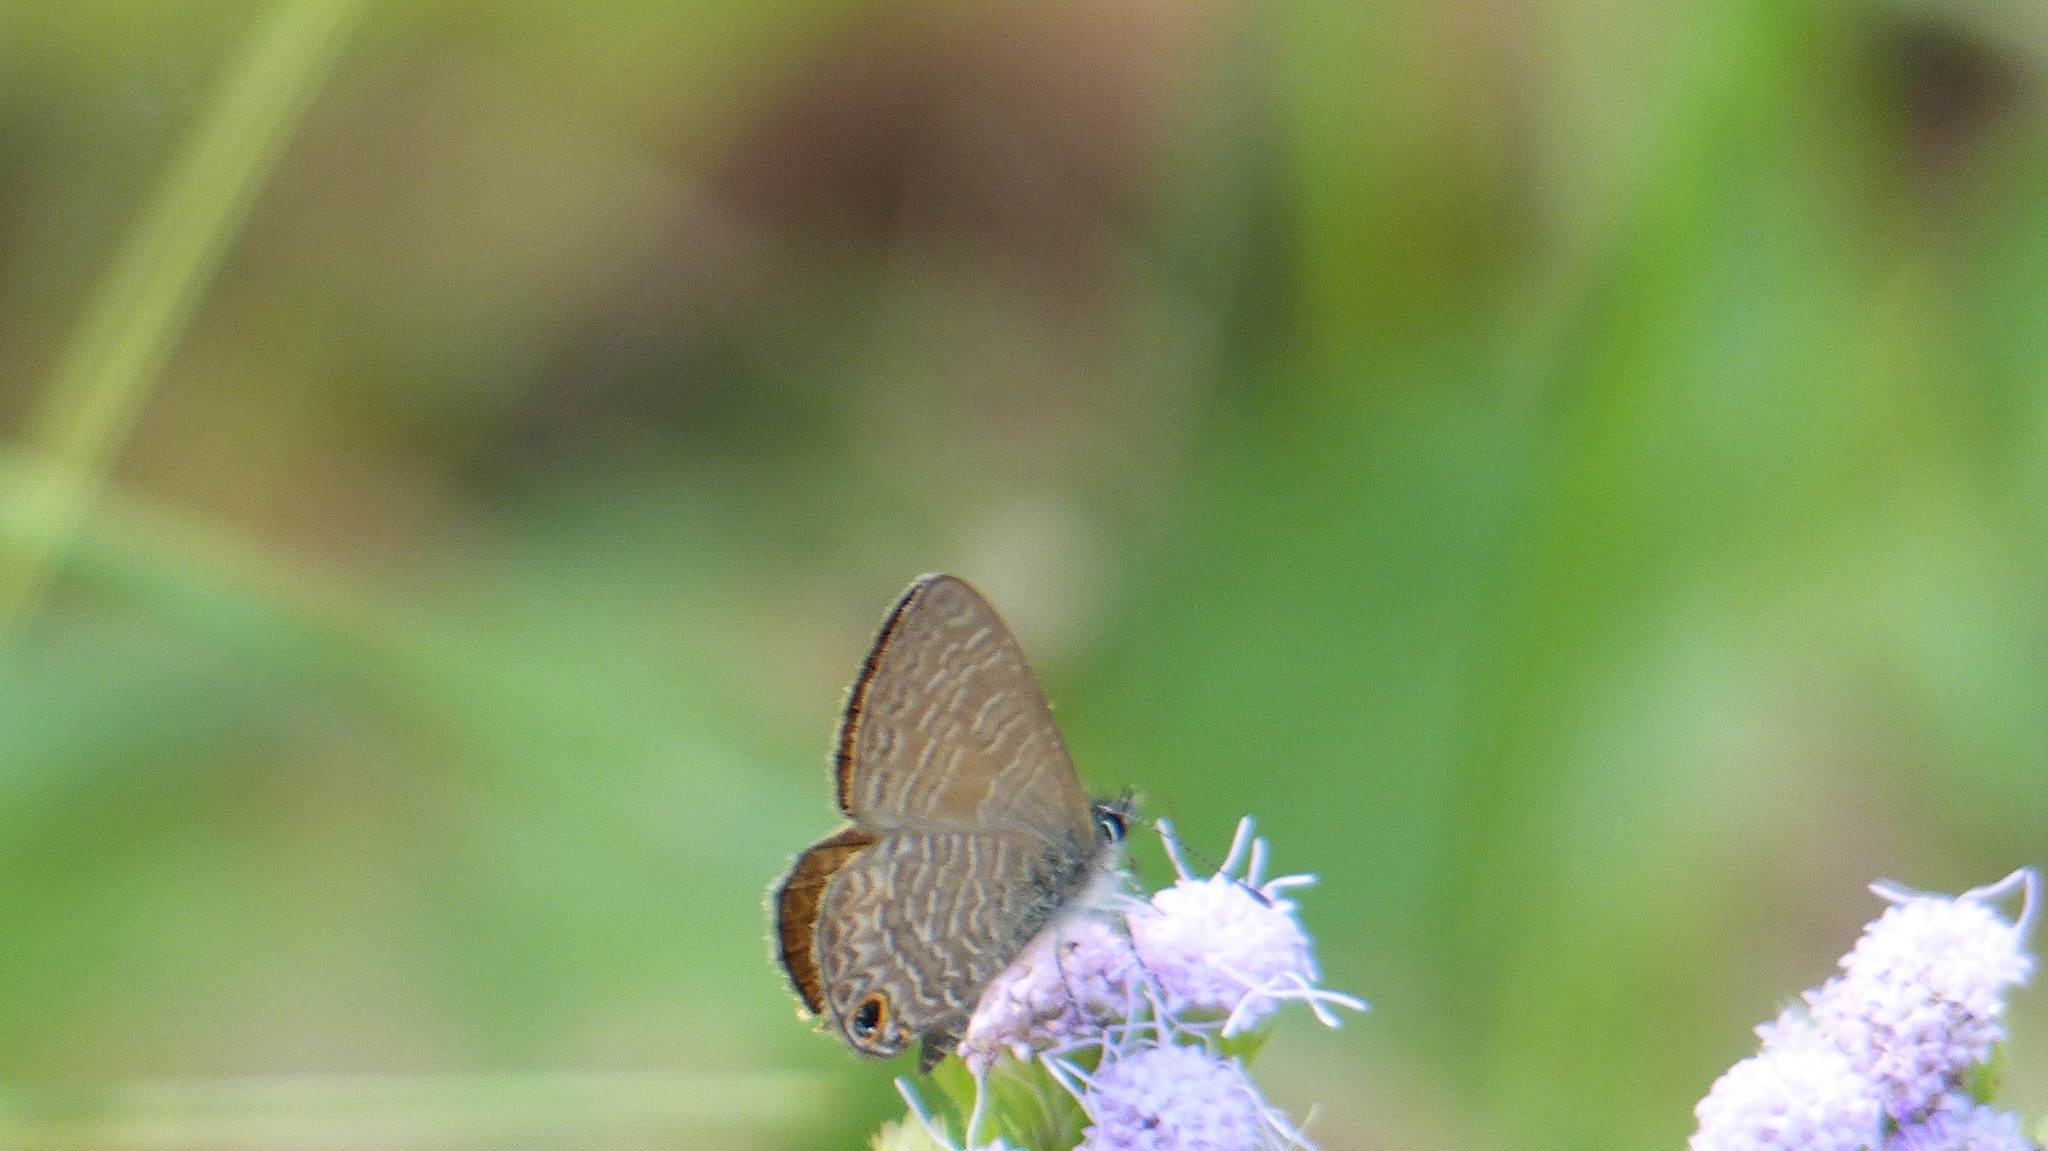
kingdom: Animalia
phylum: Arthropoda
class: Insecta
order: Lepidoptera
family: Lycaenidae
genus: Prosotas
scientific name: Prosotas dubiosa
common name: Tailless lineblue
